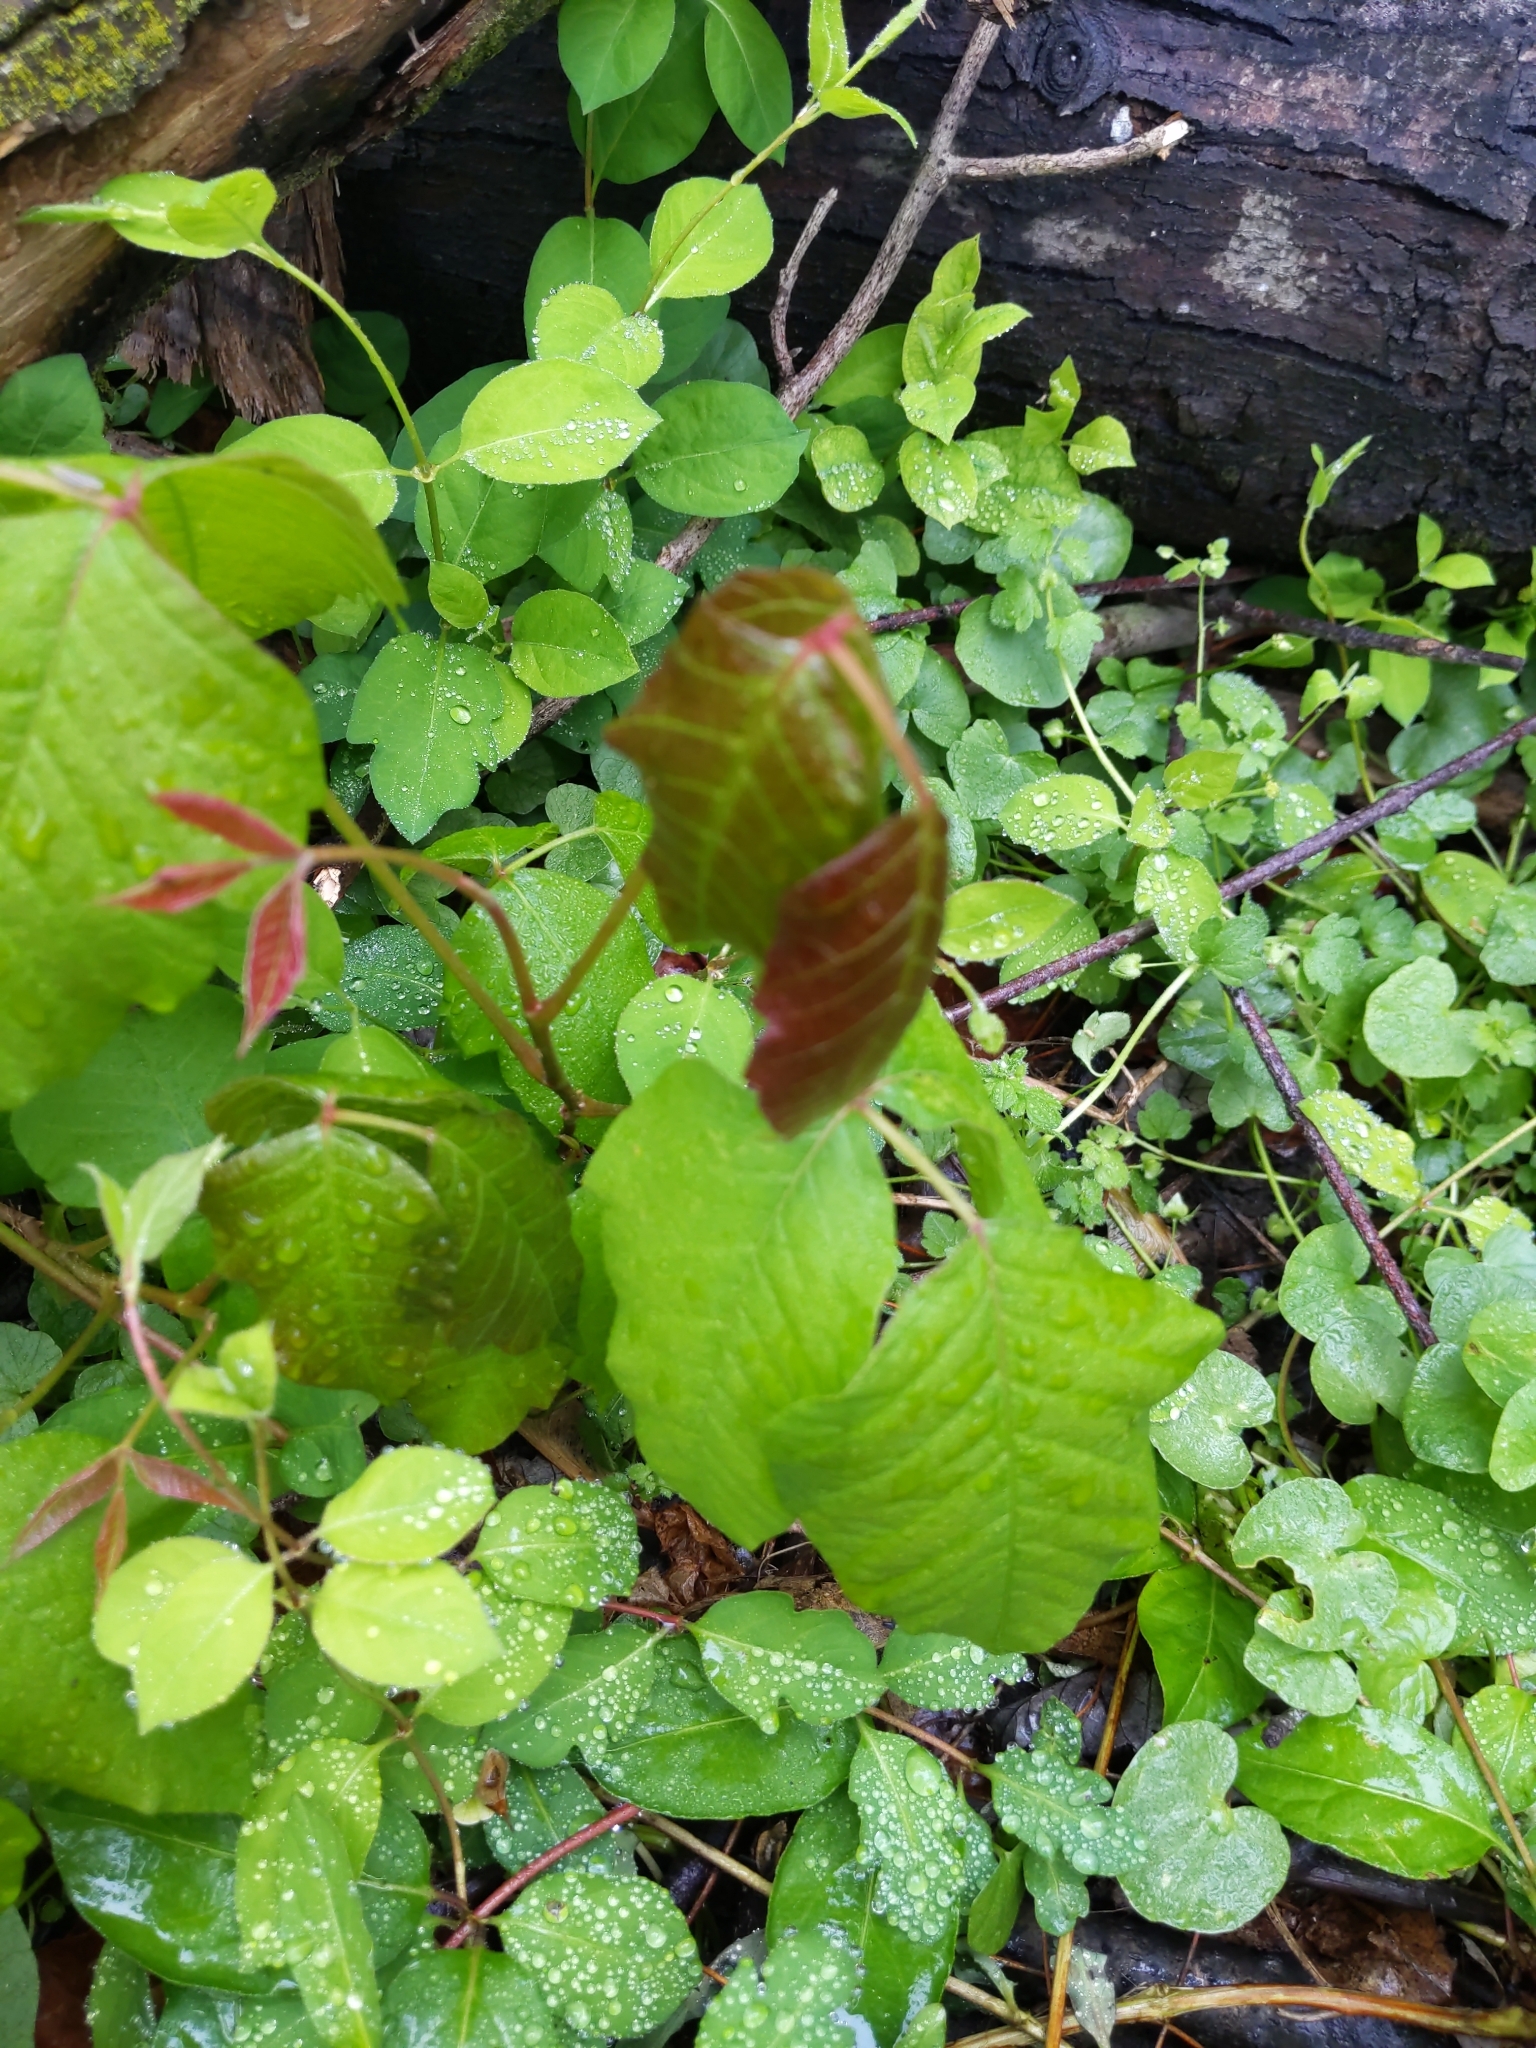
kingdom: Plantae
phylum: Tracheophyta
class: Magnoliopsida
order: Sapindales
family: Anacardiaceae
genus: Toxicodendron
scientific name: Toxicodendron radicans
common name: Poison ivy
